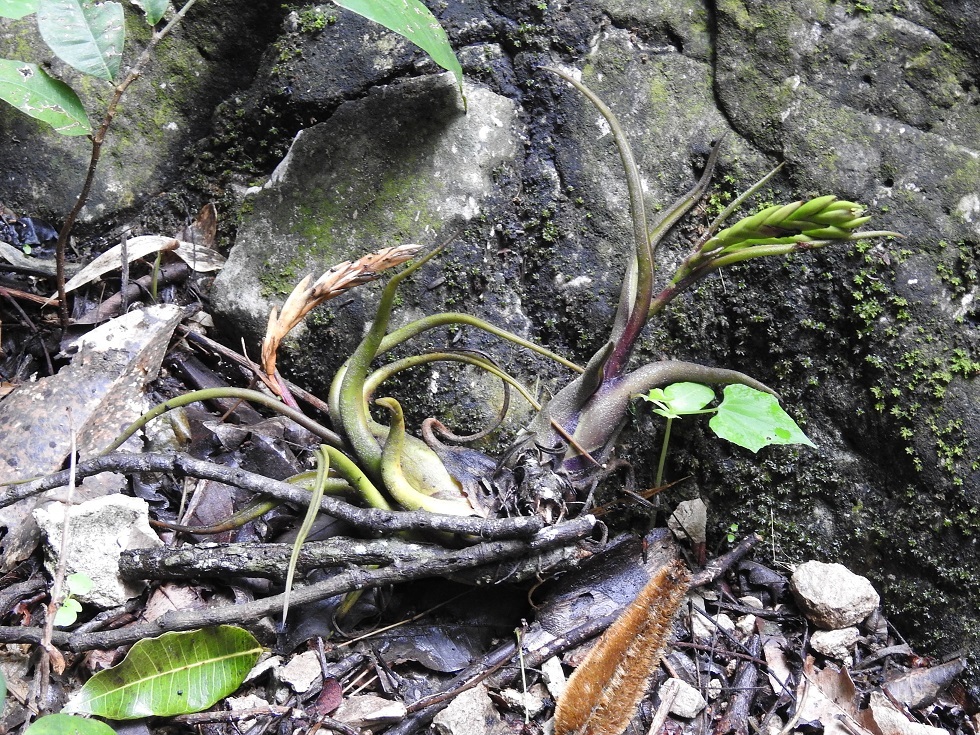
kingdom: Plantae
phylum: Tracheophyta
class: Liliopsida
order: Poales
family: Bromeliaceae
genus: Tillandsia
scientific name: Tillandsia caput-medusae
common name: Octopus plant
